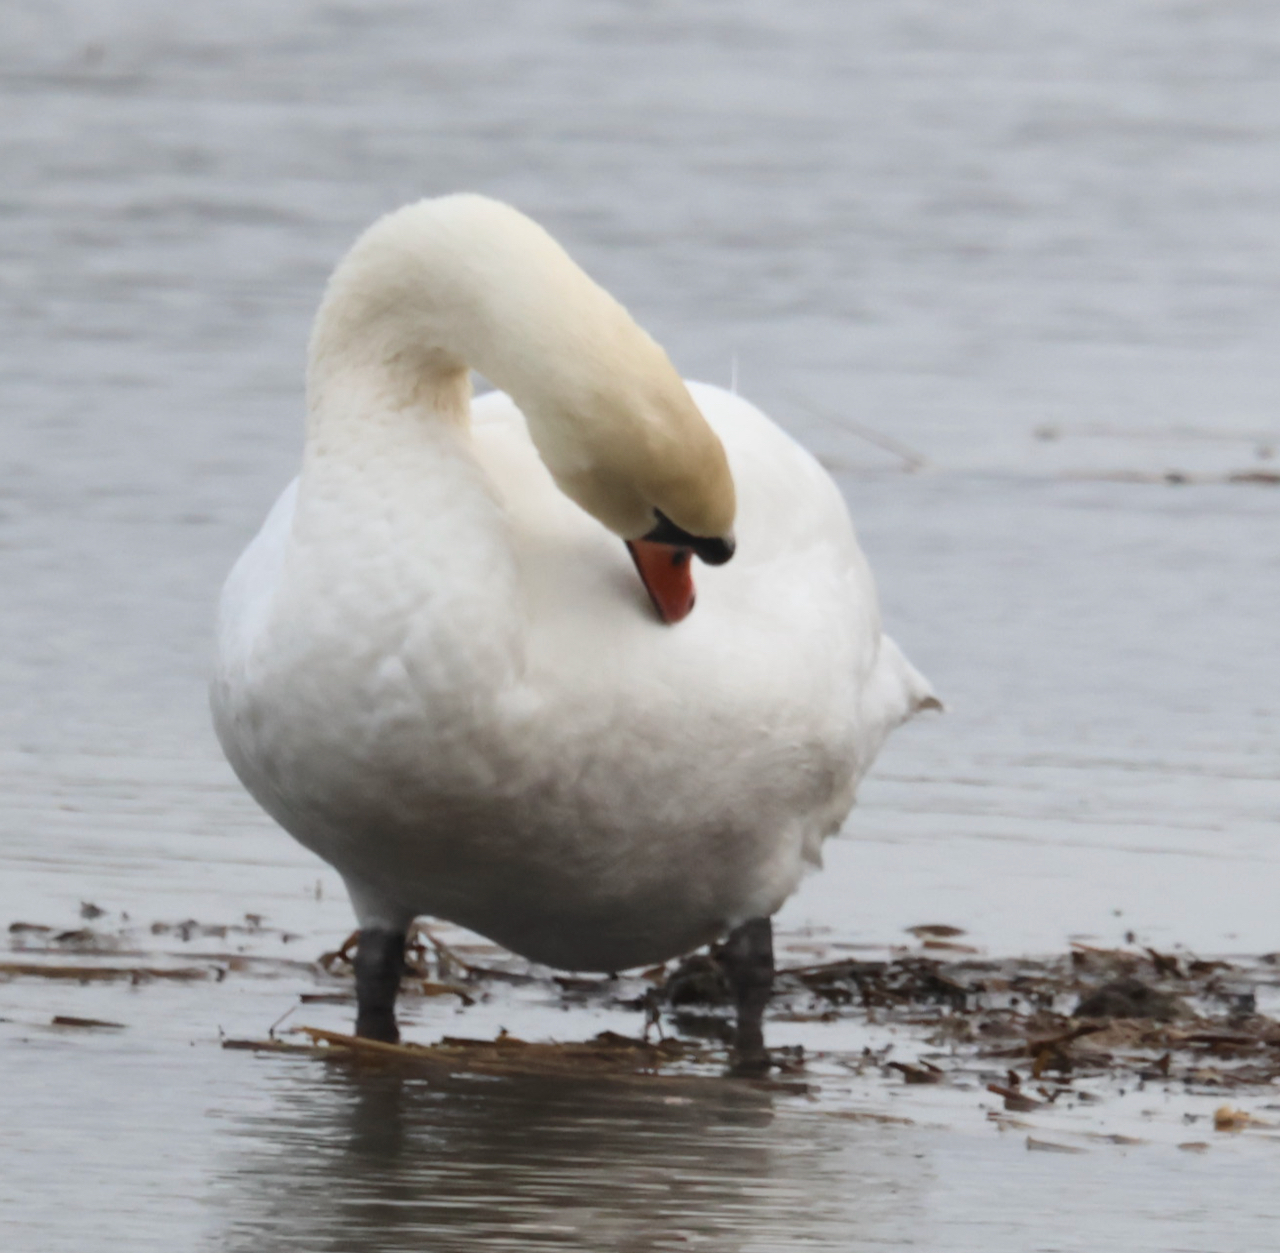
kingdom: Animalia
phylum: Chordata
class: Aves
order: Anseriformes
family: Anatidae
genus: Cygnus
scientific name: Cygnus olor
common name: Mute swan
